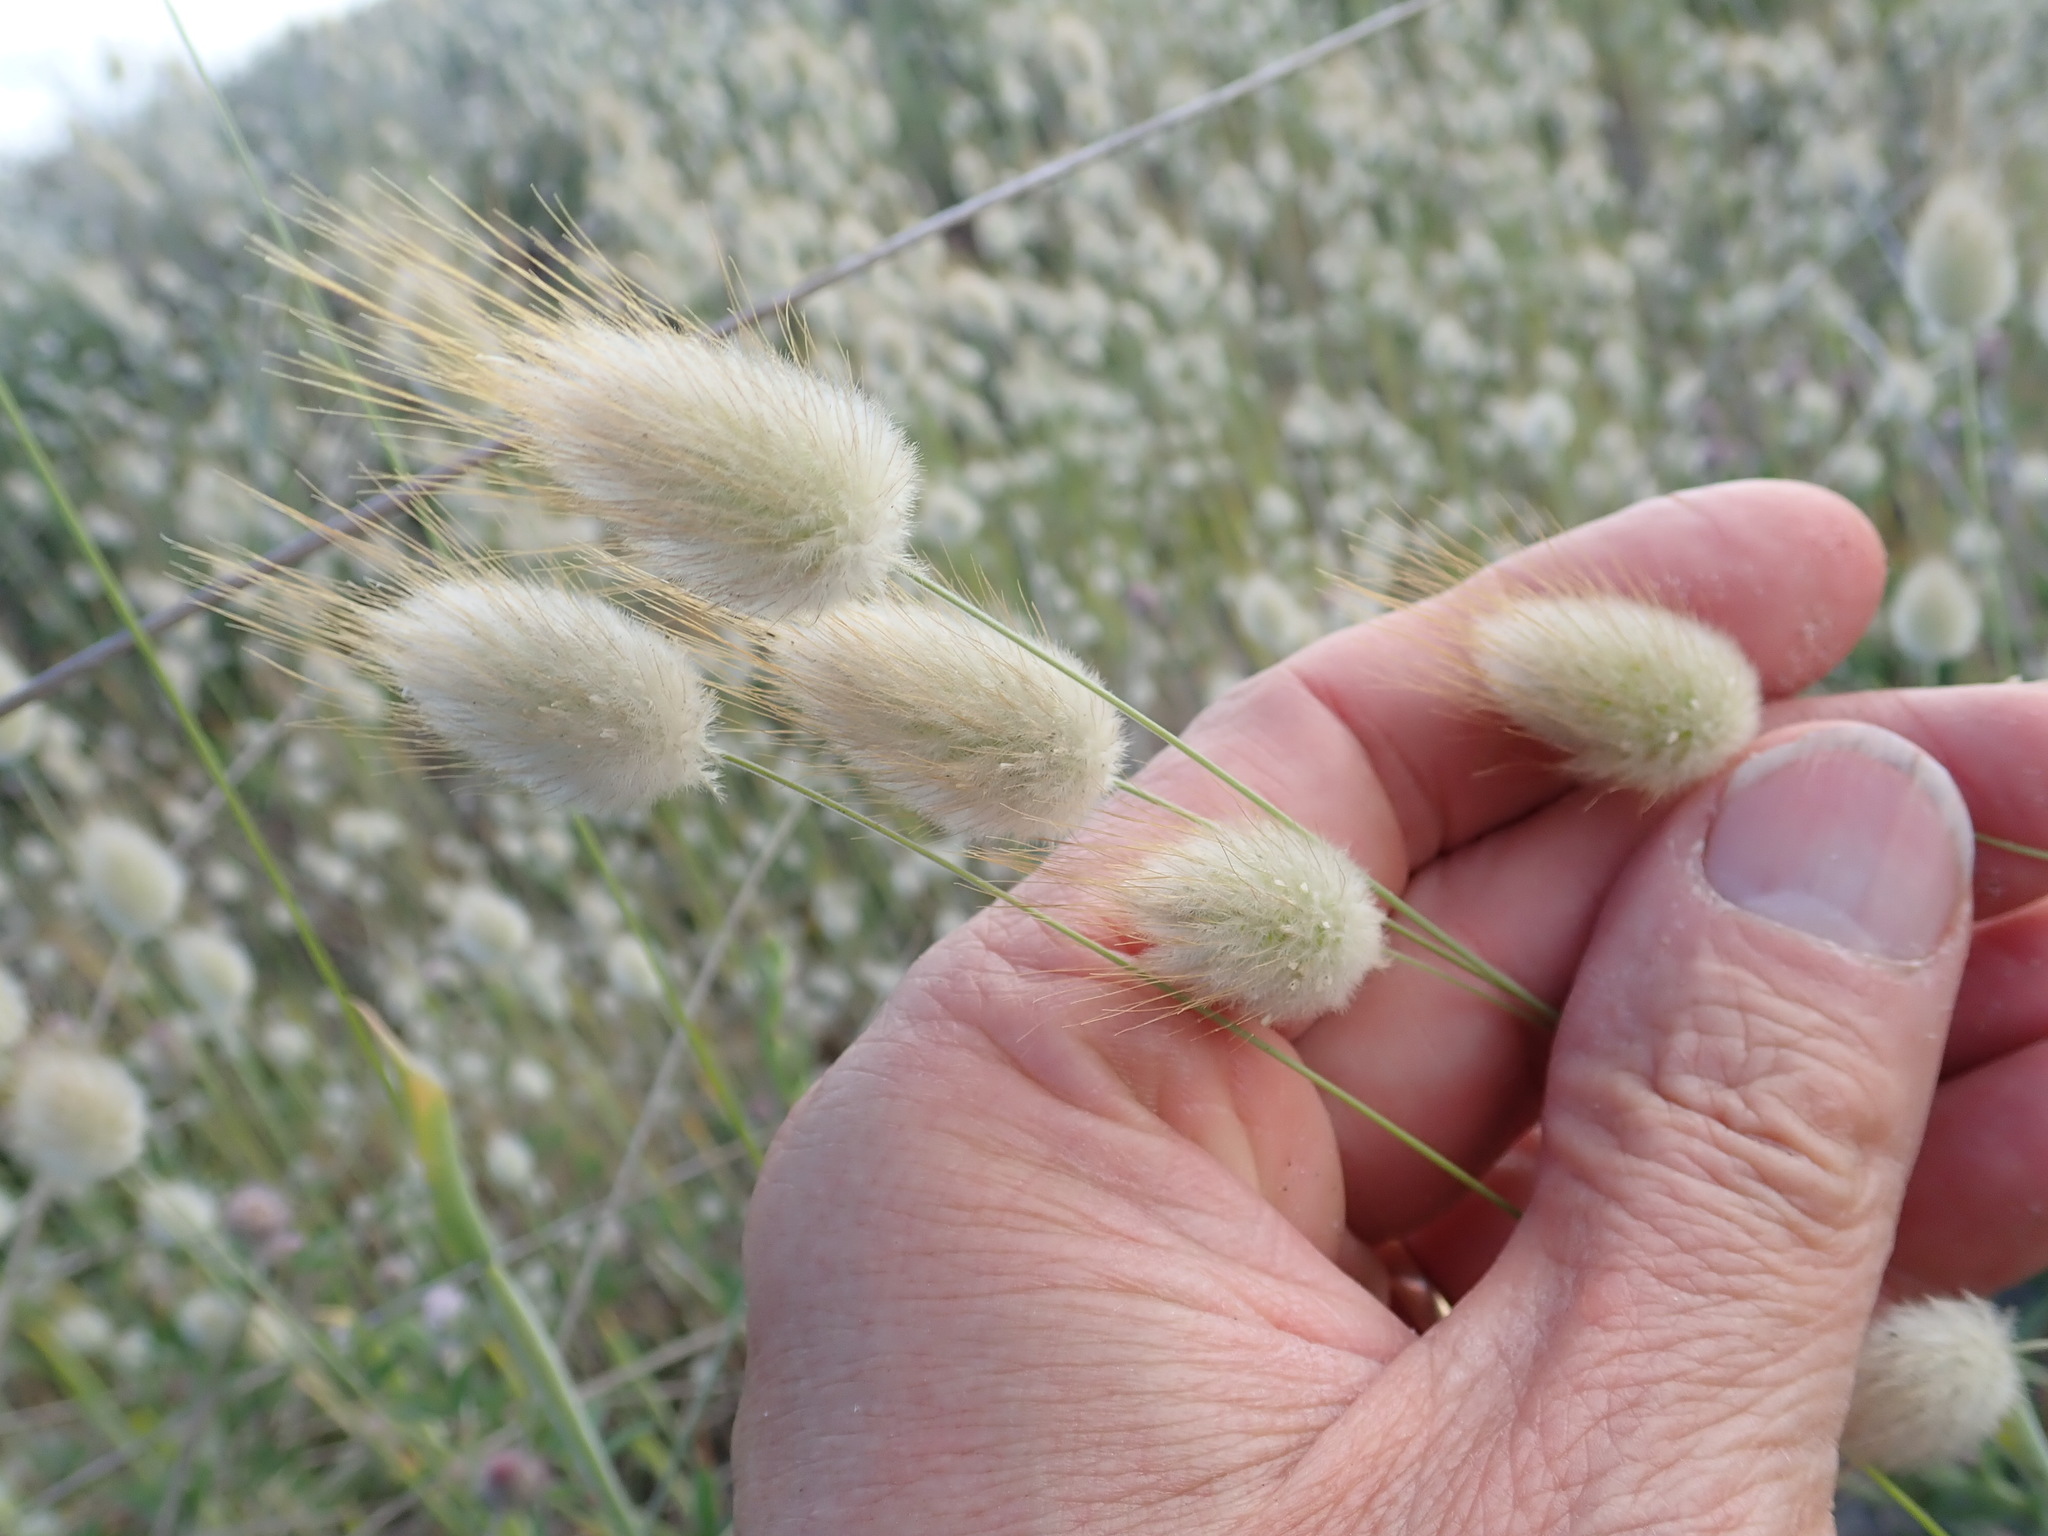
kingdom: Plantae
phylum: Tracheophyta
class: Liliopsida
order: Poales
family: Poaceae
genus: Lagurus
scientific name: Lagurus ovatus
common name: Hare's-tail
